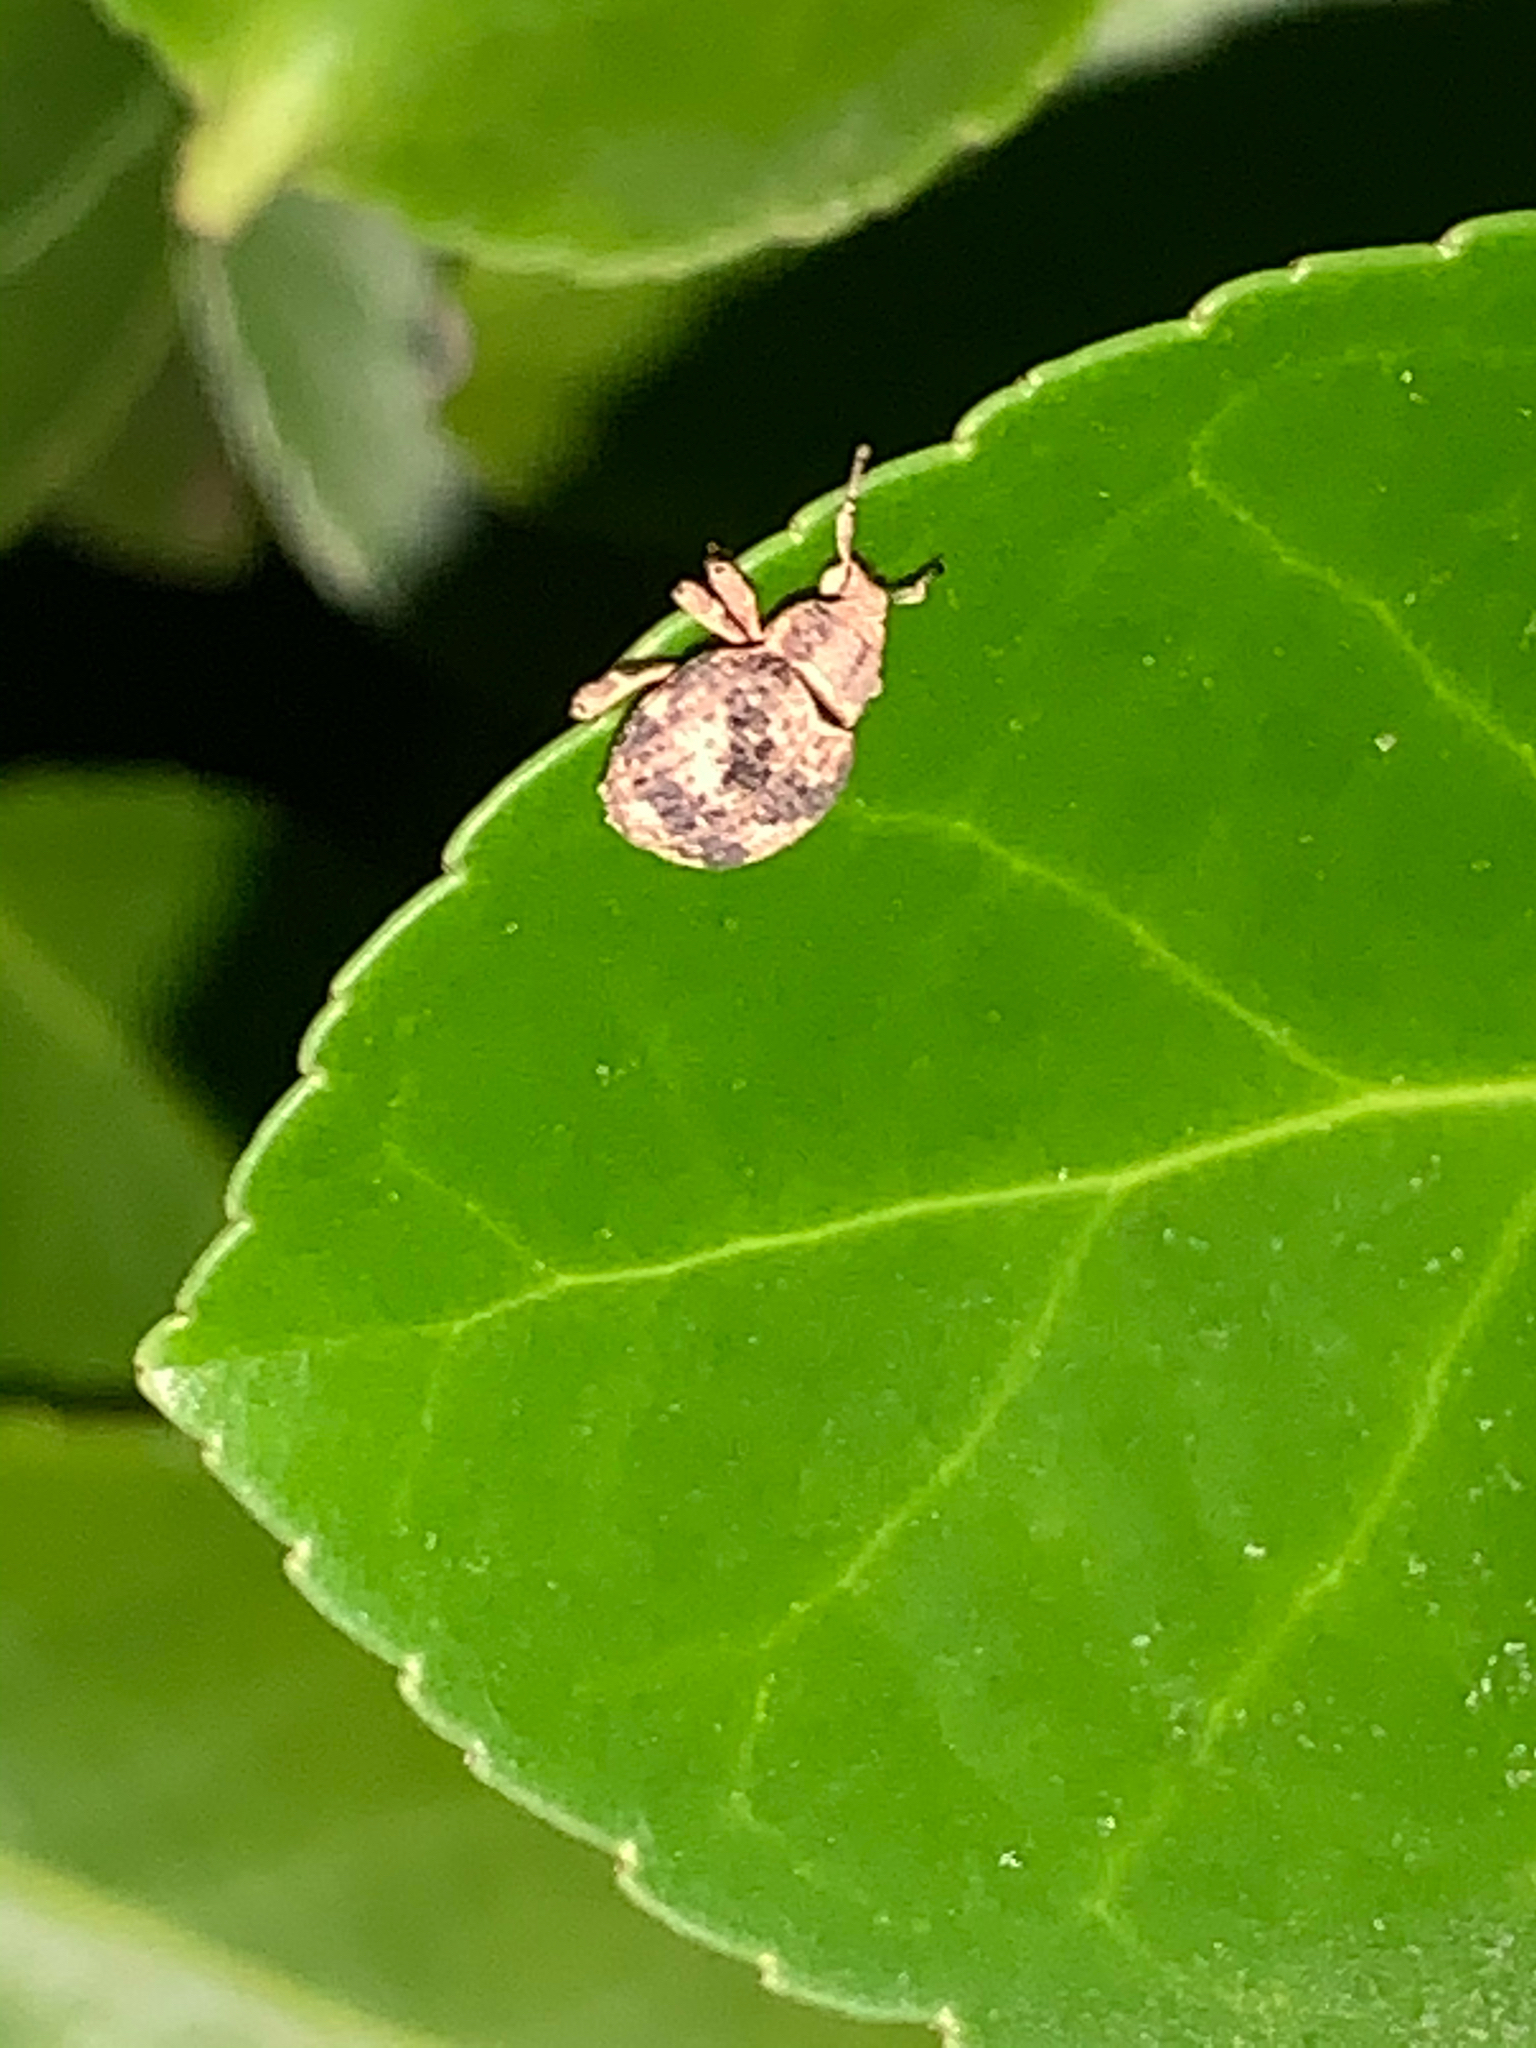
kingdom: Animalia
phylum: Arthropoda
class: Insecta
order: Coleoptera
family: Curculionidae
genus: Pseudocneorhinus
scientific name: Pseudocneorhinus bifasciatus
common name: Two-banded japanese weevil
